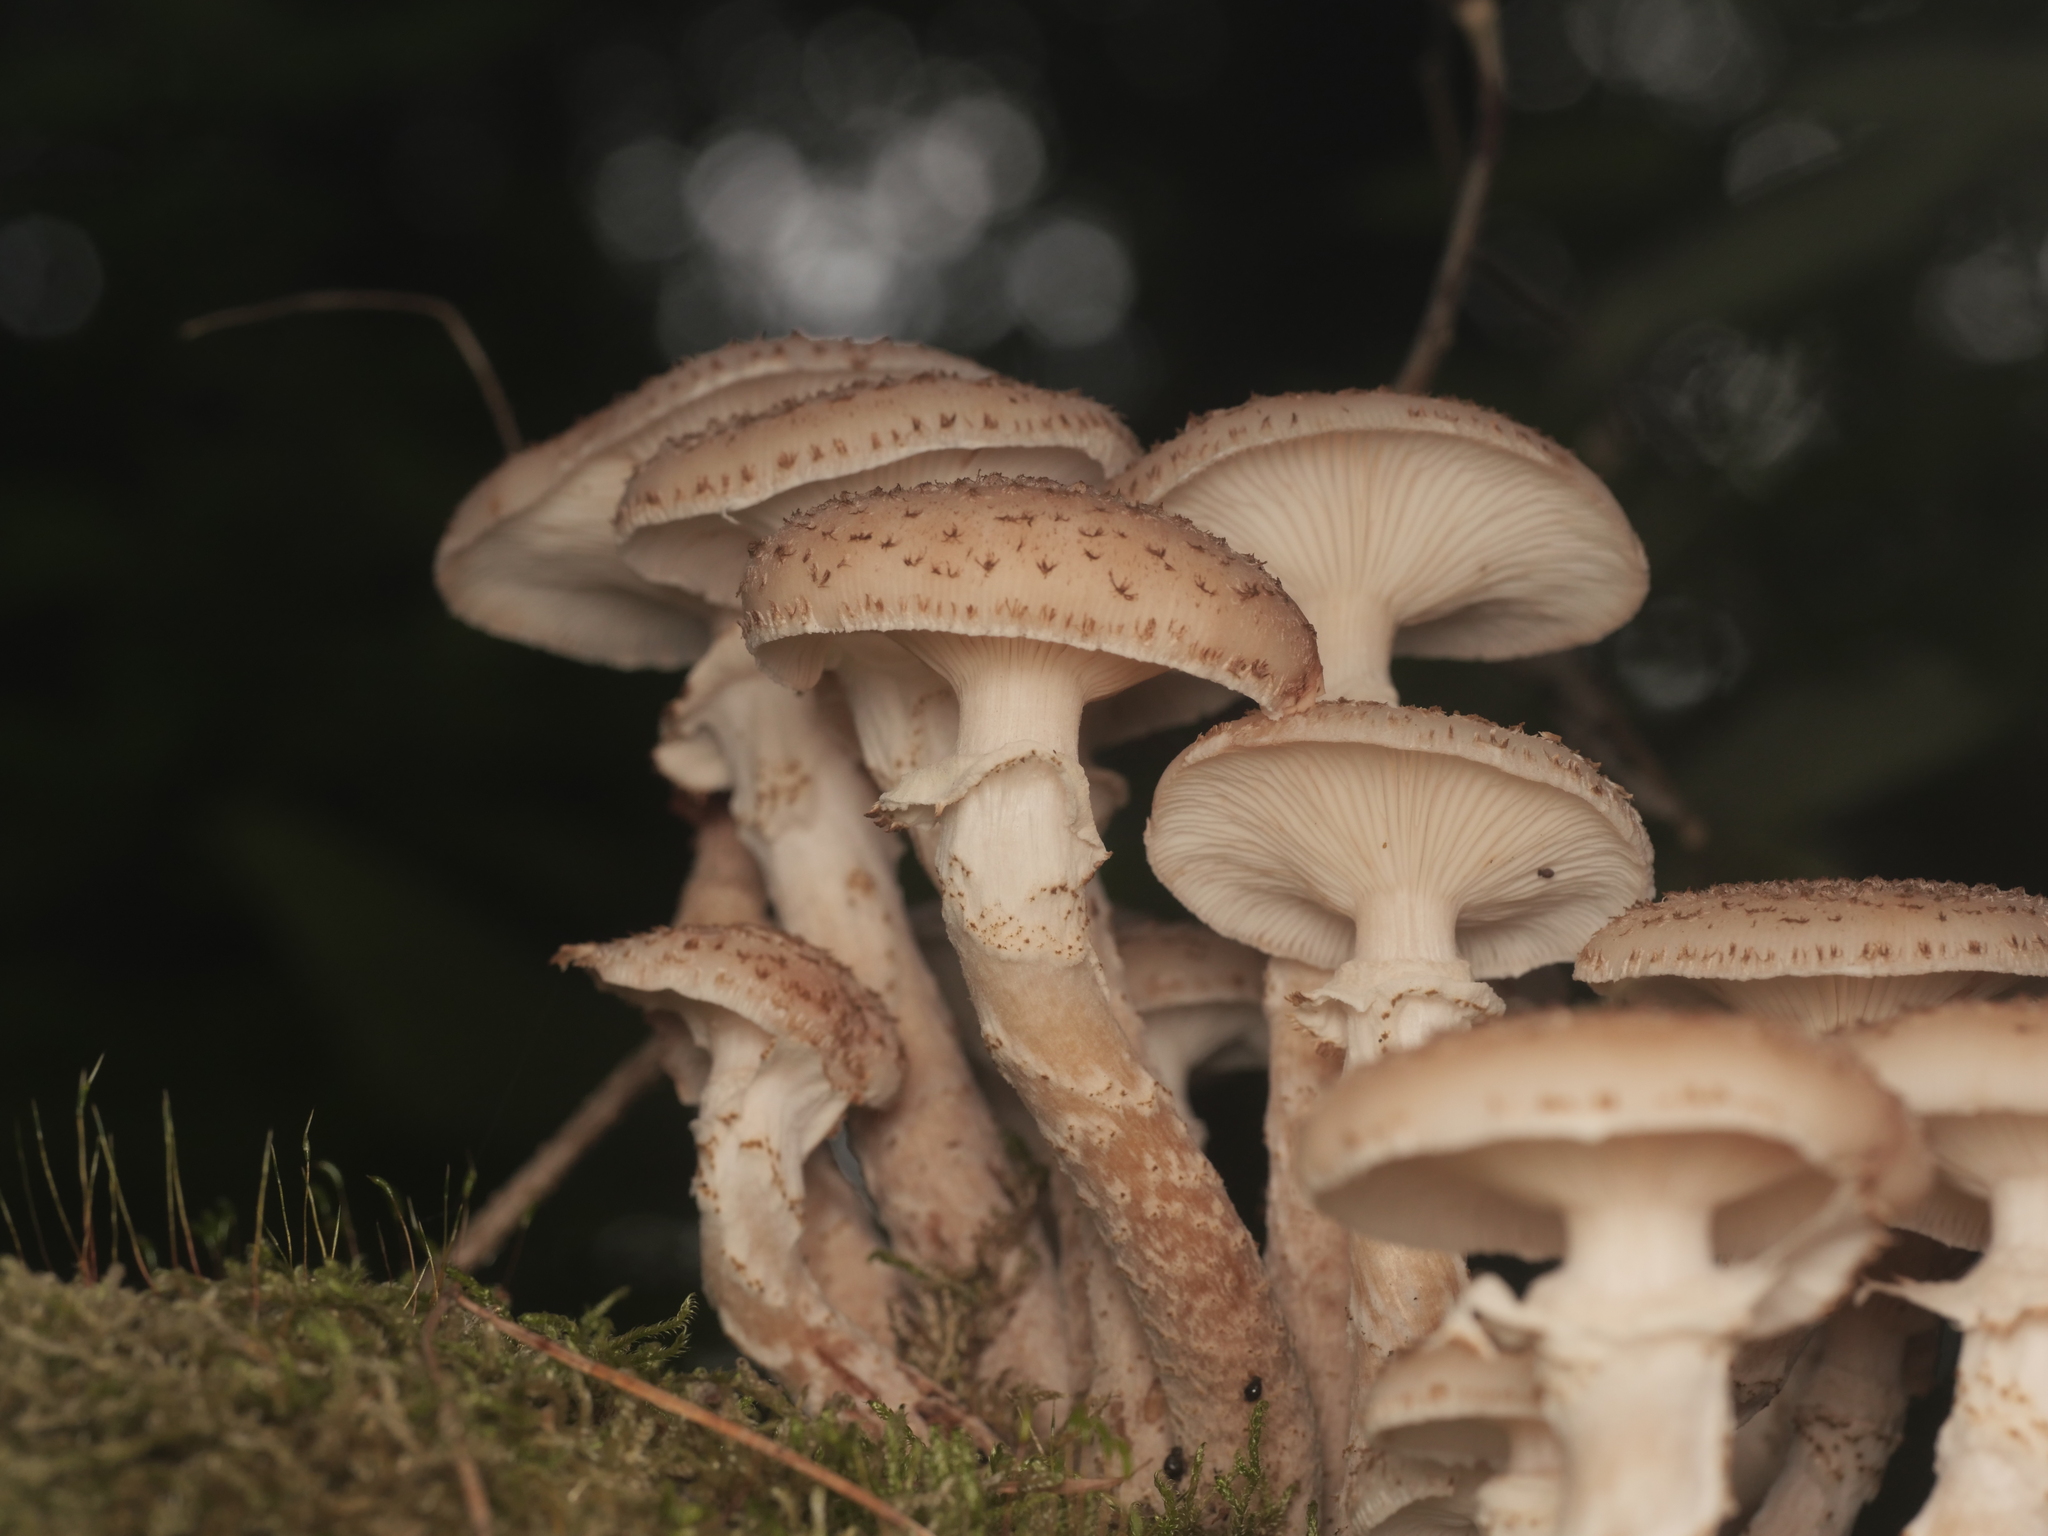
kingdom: Fungi
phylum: Basidiomycota
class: Agaricomycetes
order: Agaricales
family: Physalacriaceae
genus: Armillaria
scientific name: Armillaria ostoyae
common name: Dark honey fungus
